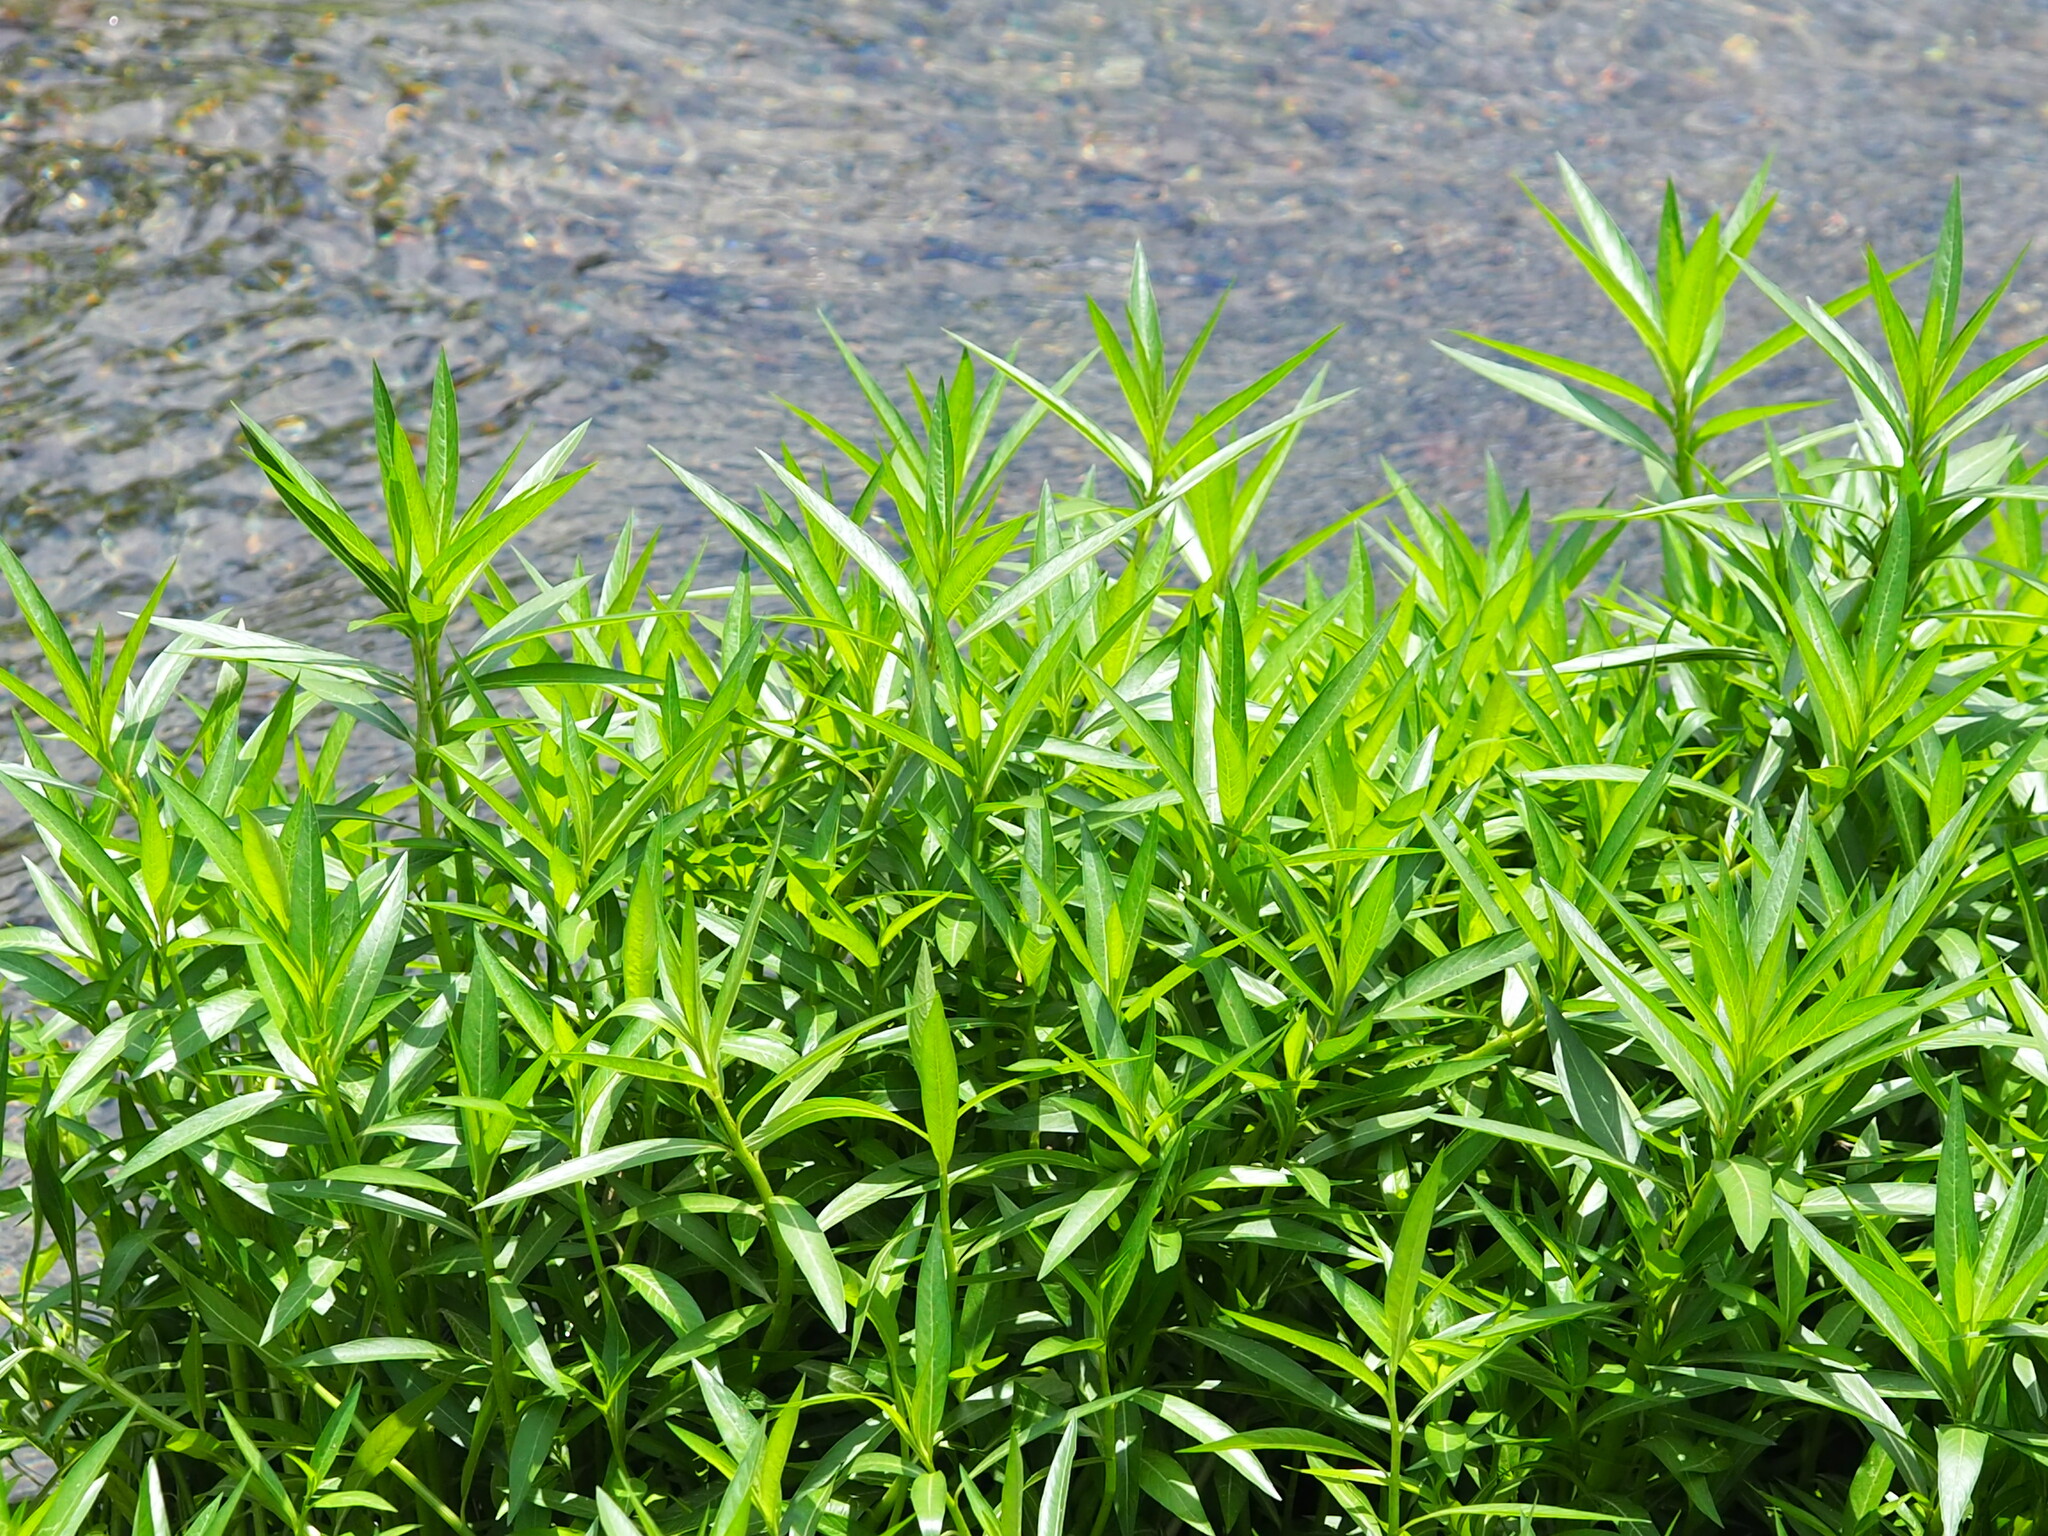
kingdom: Plantae
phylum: Tracheophyta
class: Magnoliopsida
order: Solanales
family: Hydroleaceae
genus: Hydrolea
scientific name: Hydrolea zeylanica
